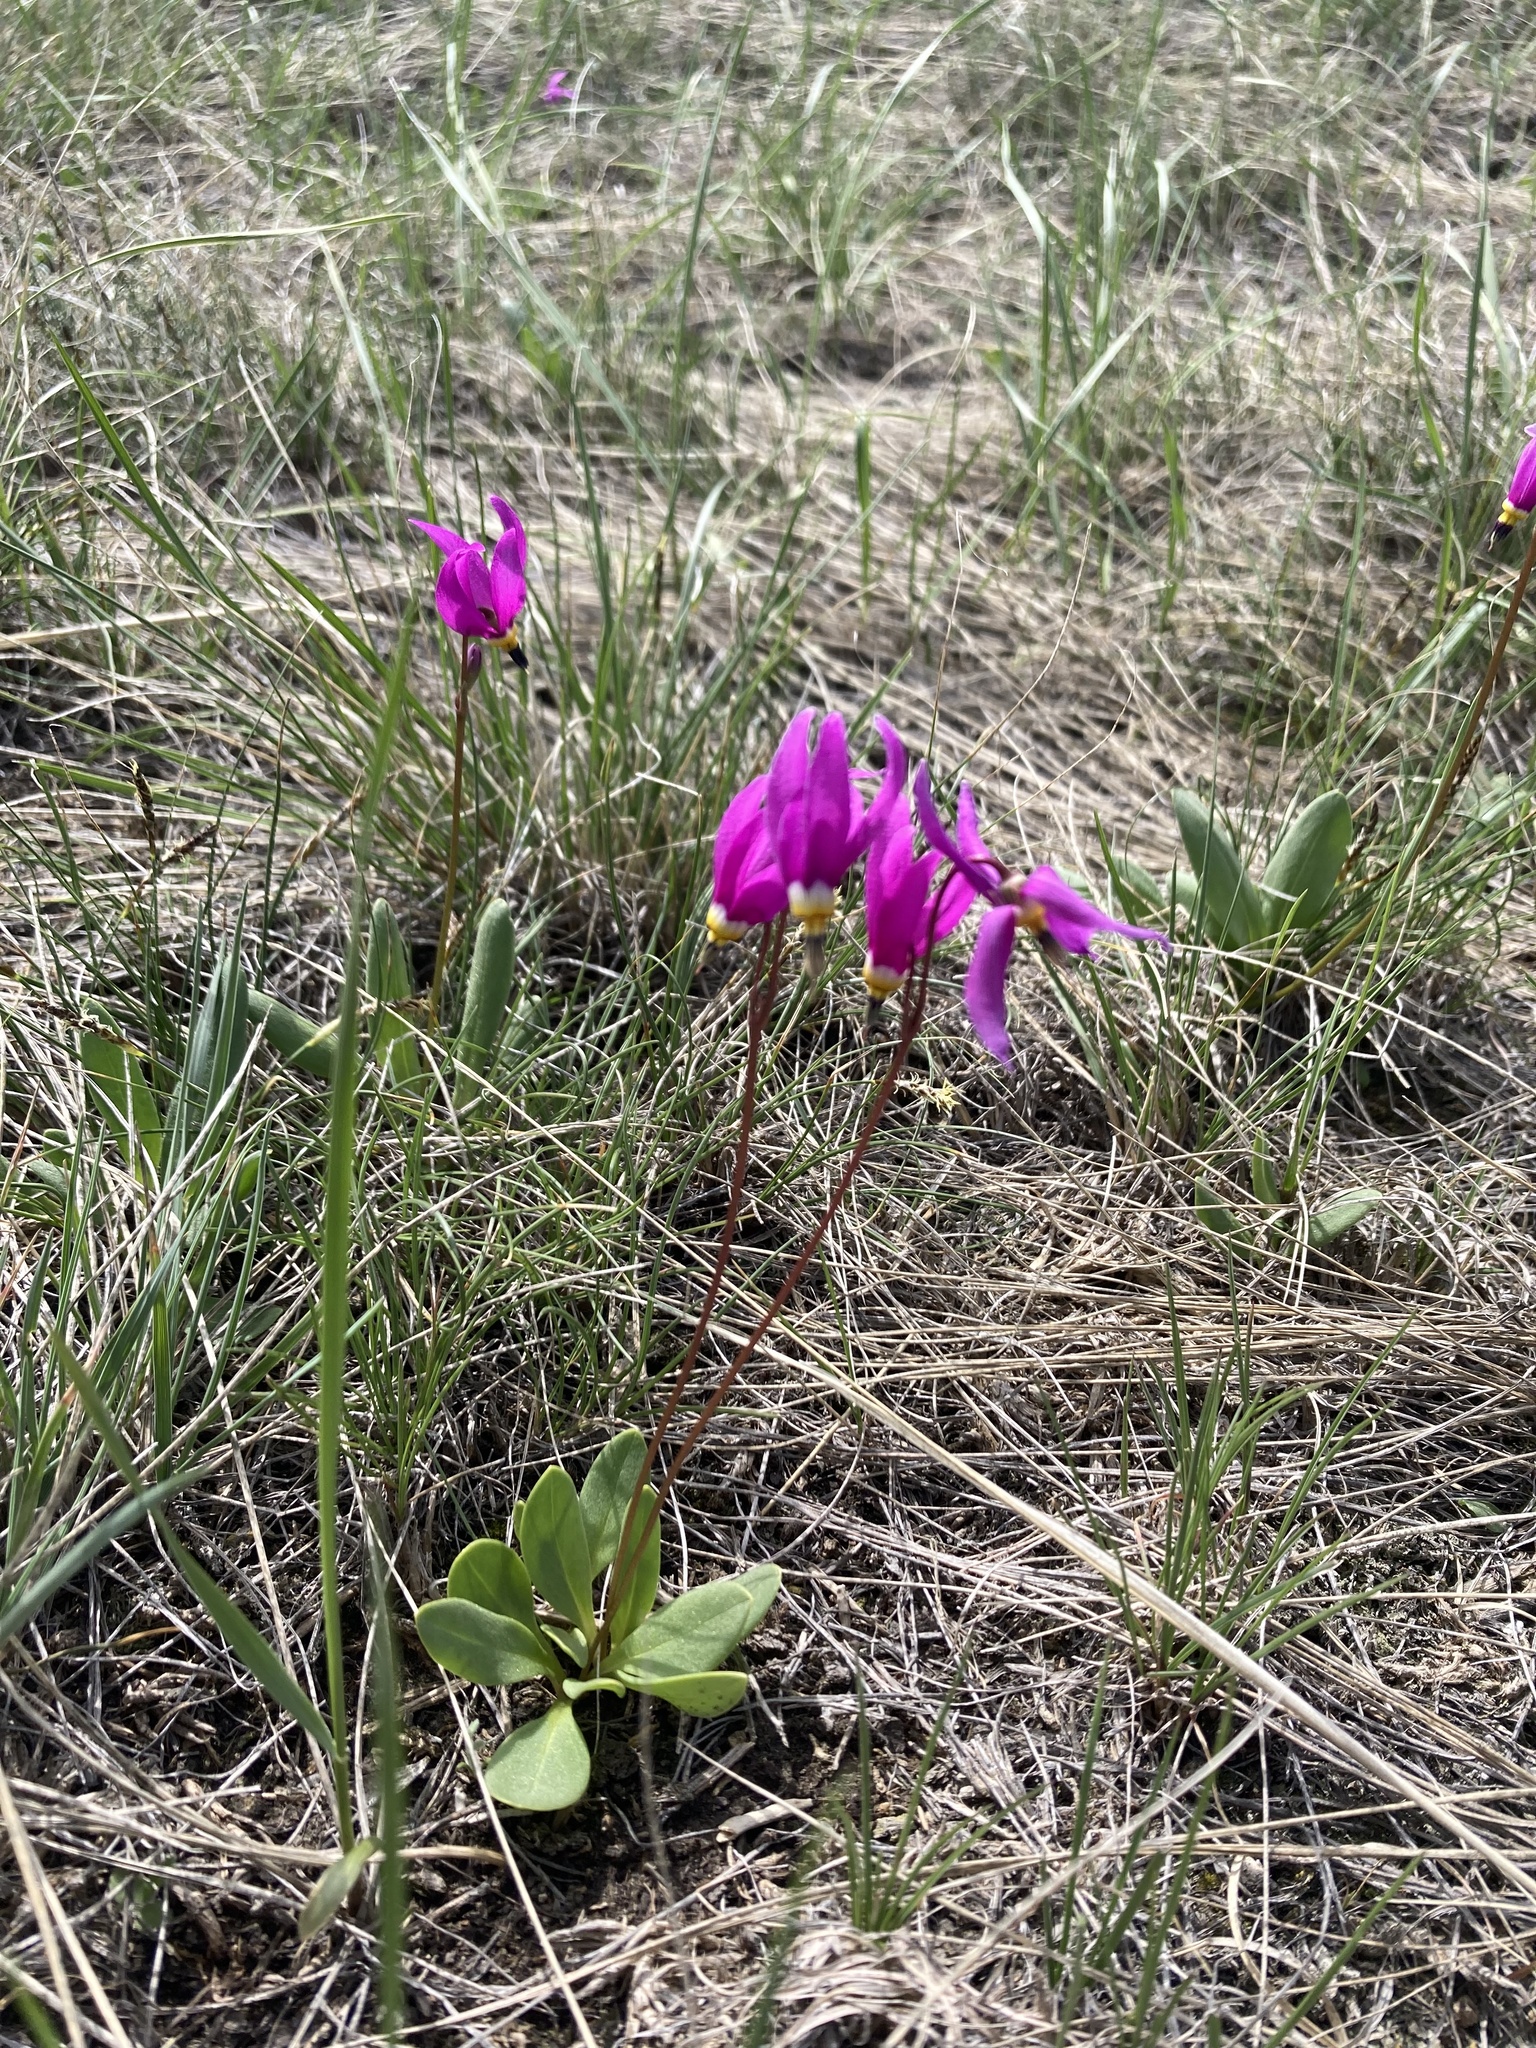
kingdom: Plantae
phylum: Tracheophyta
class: Magnoliopsida
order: Ericales
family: Primulaceae
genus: Dodecatheon
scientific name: Dodecatheon conjugens
